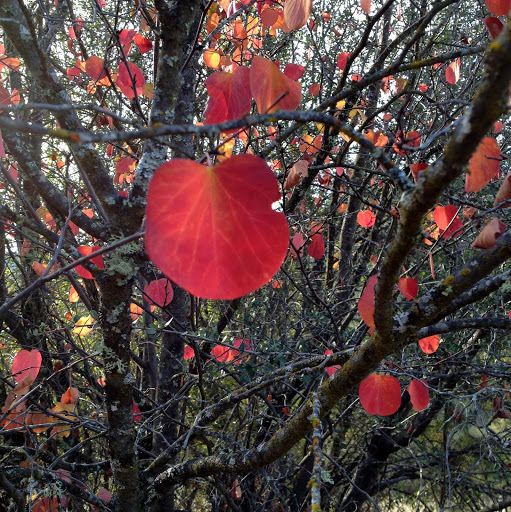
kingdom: Plantae
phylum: Tracheophyta
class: Magnoliopsida
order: Fabales
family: Fabaceae
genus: Cercis
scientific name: Cercis occidentalis
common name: California redbud
